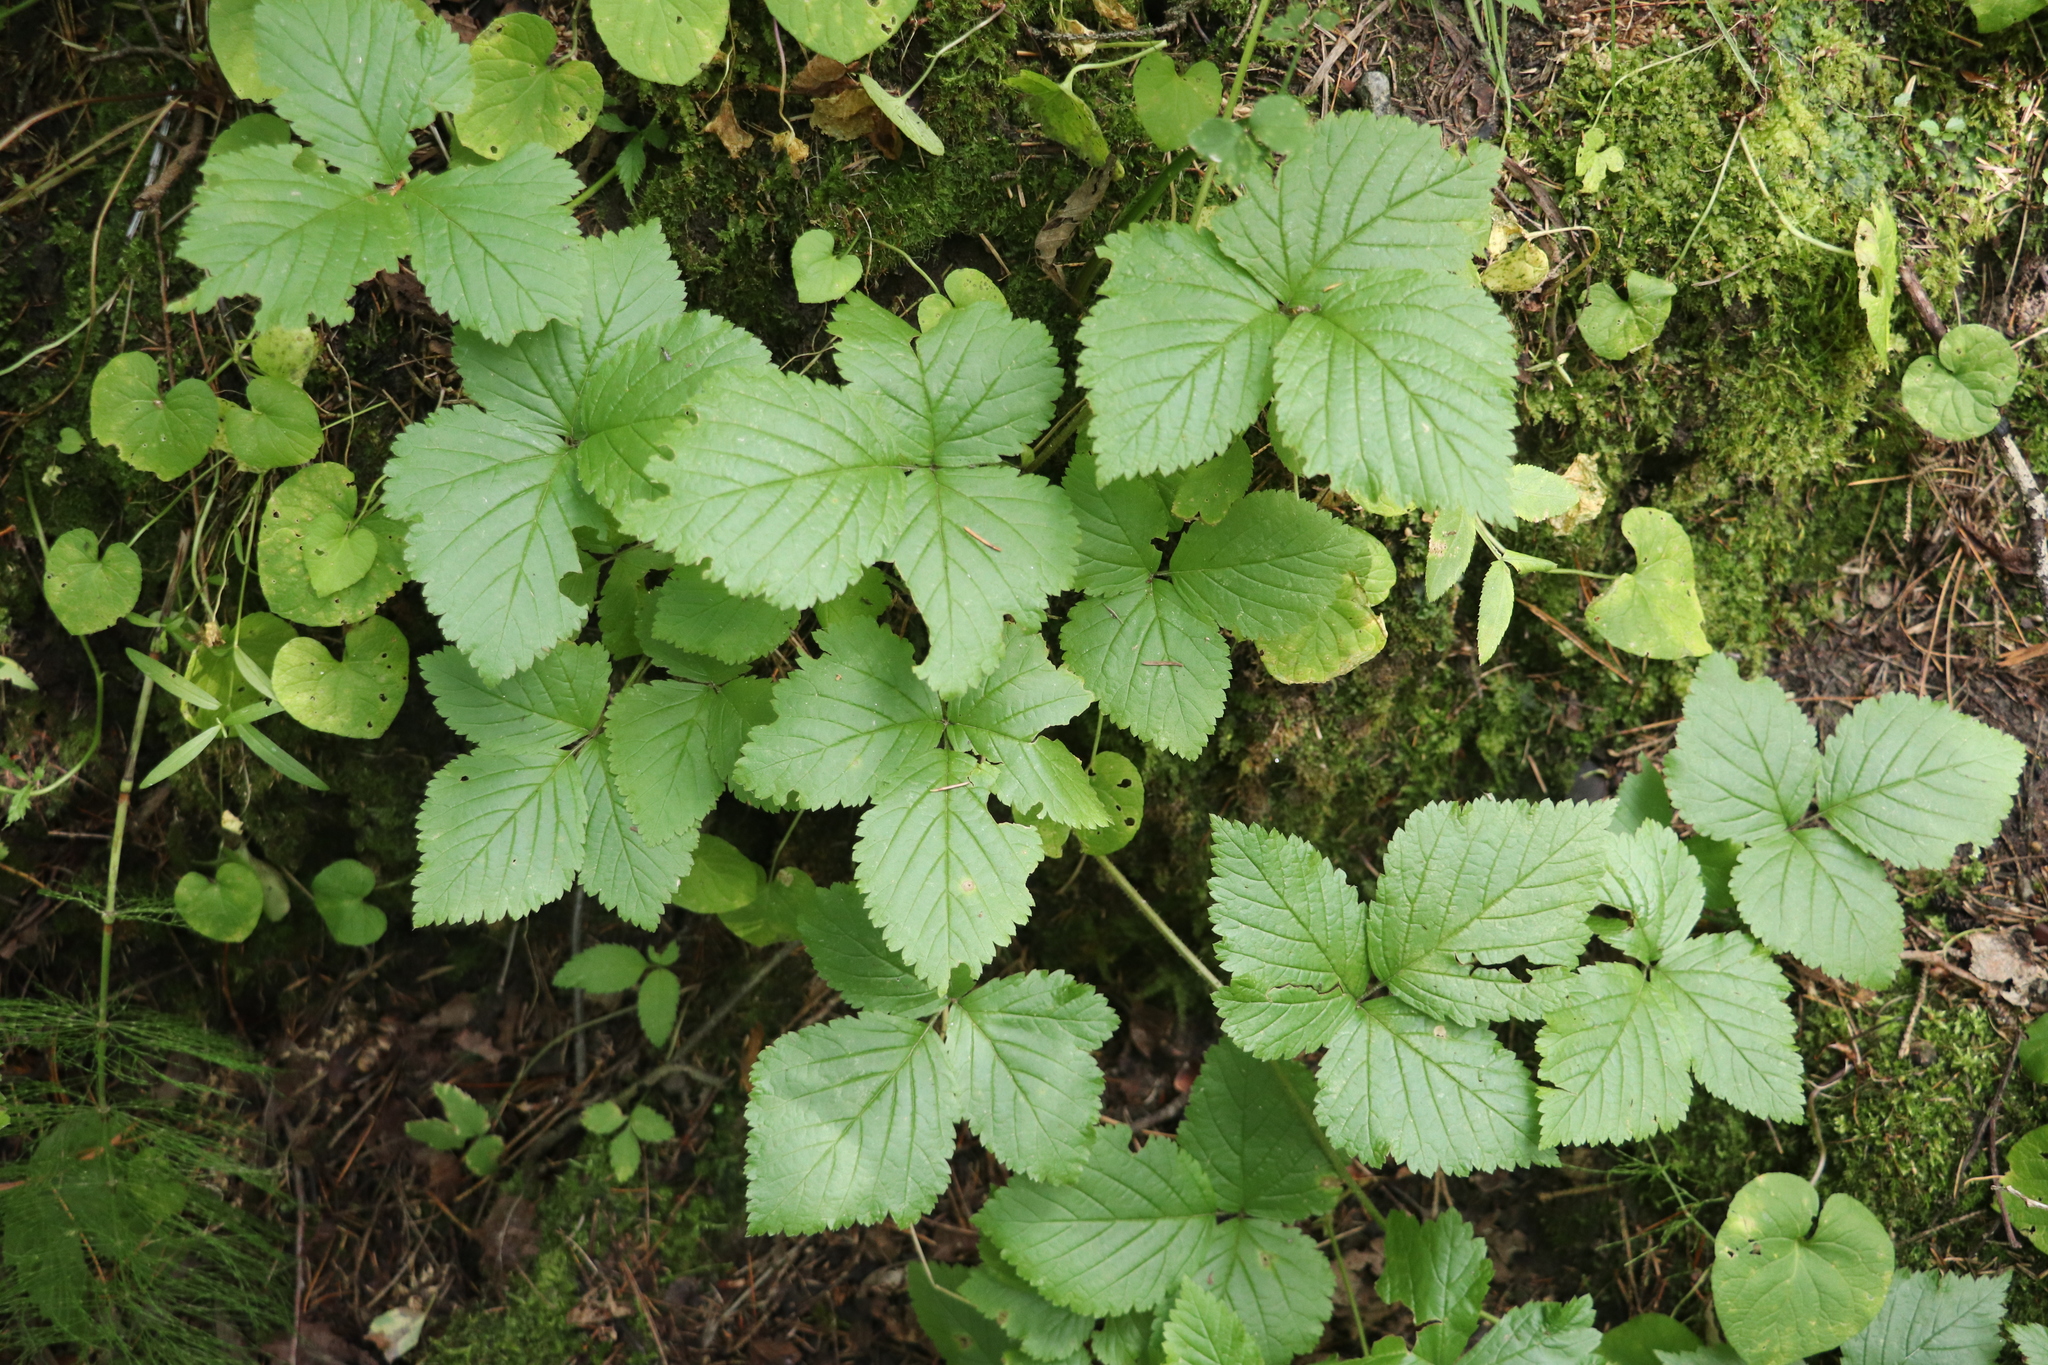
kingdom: Plantae
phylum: Tracheophyta
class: Magnoliopsida
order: Rosales
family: Rosaceae
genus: Rubus
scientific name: Rubus saxatilis
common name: Stone bramble
